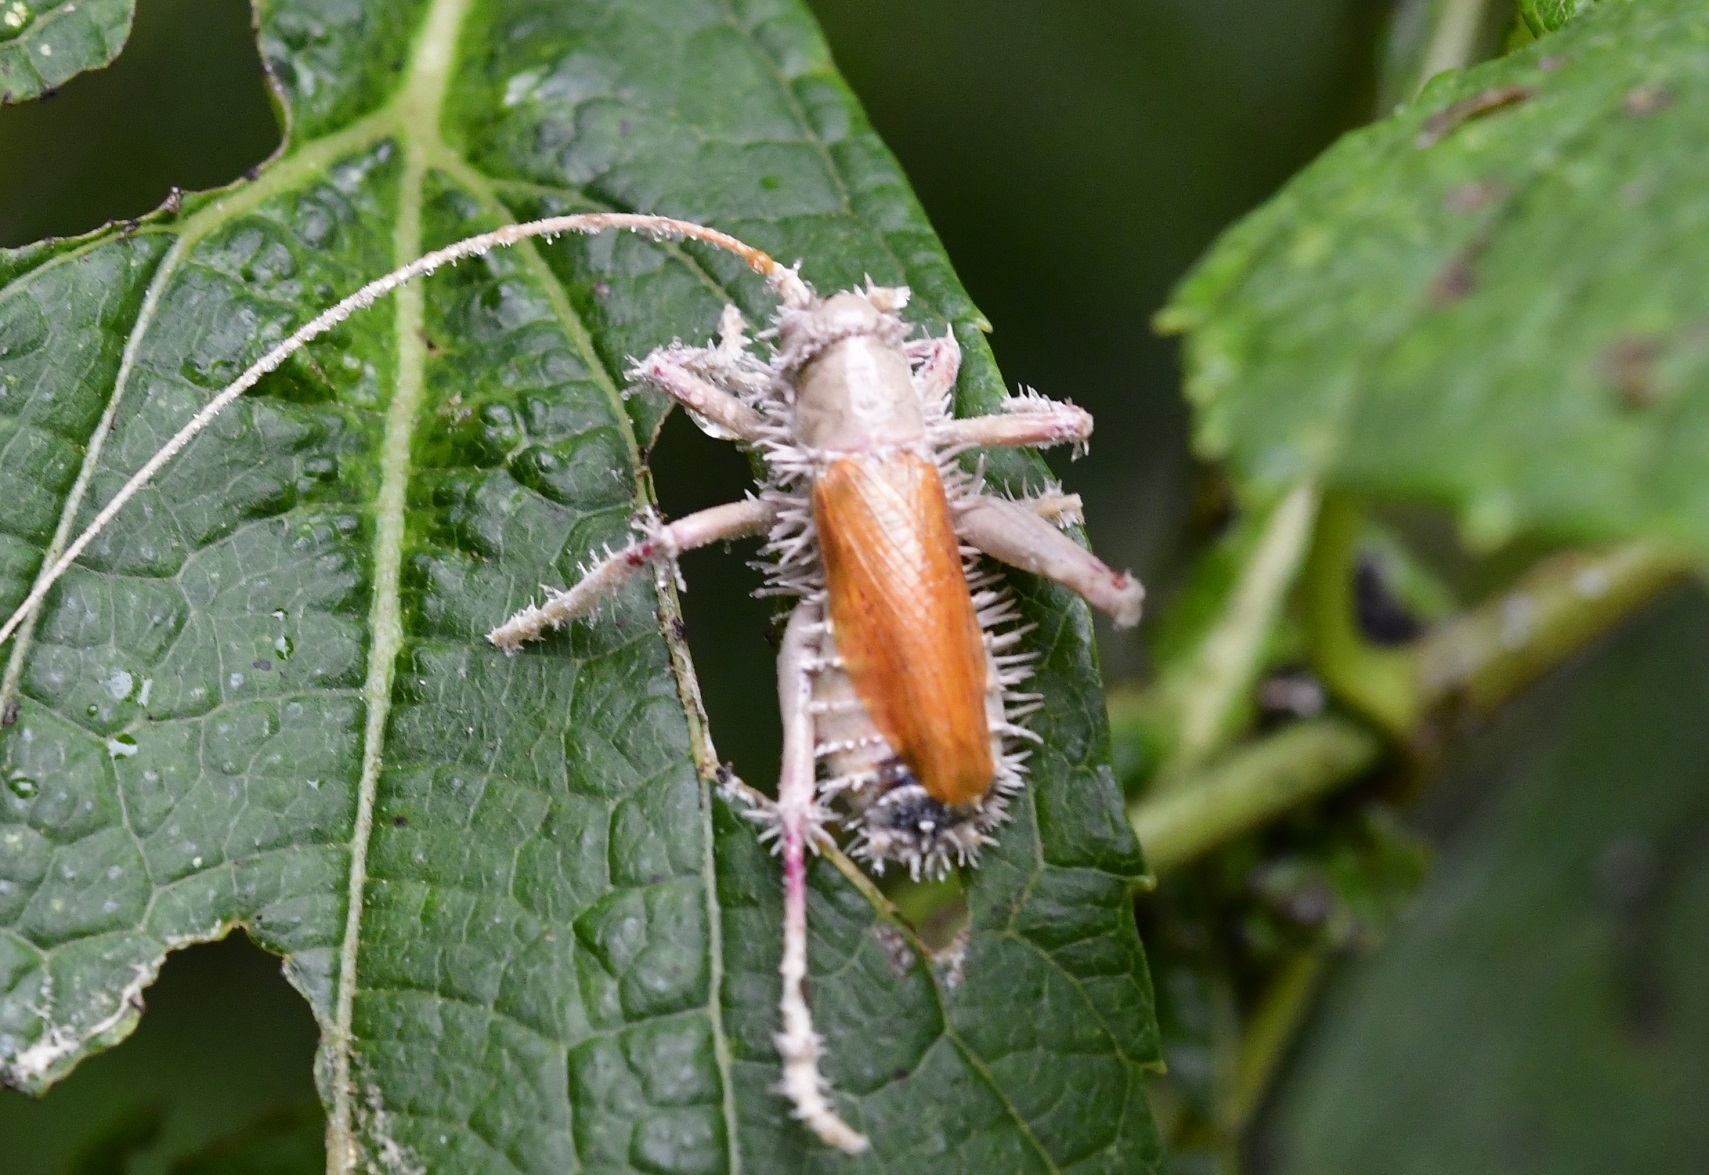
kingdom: Animalia
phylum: Arthropoda
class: Insecta
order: Orthoptera
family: Gryllacrididae
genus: Brachybaenus
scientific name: Brachybaenus ablutus
